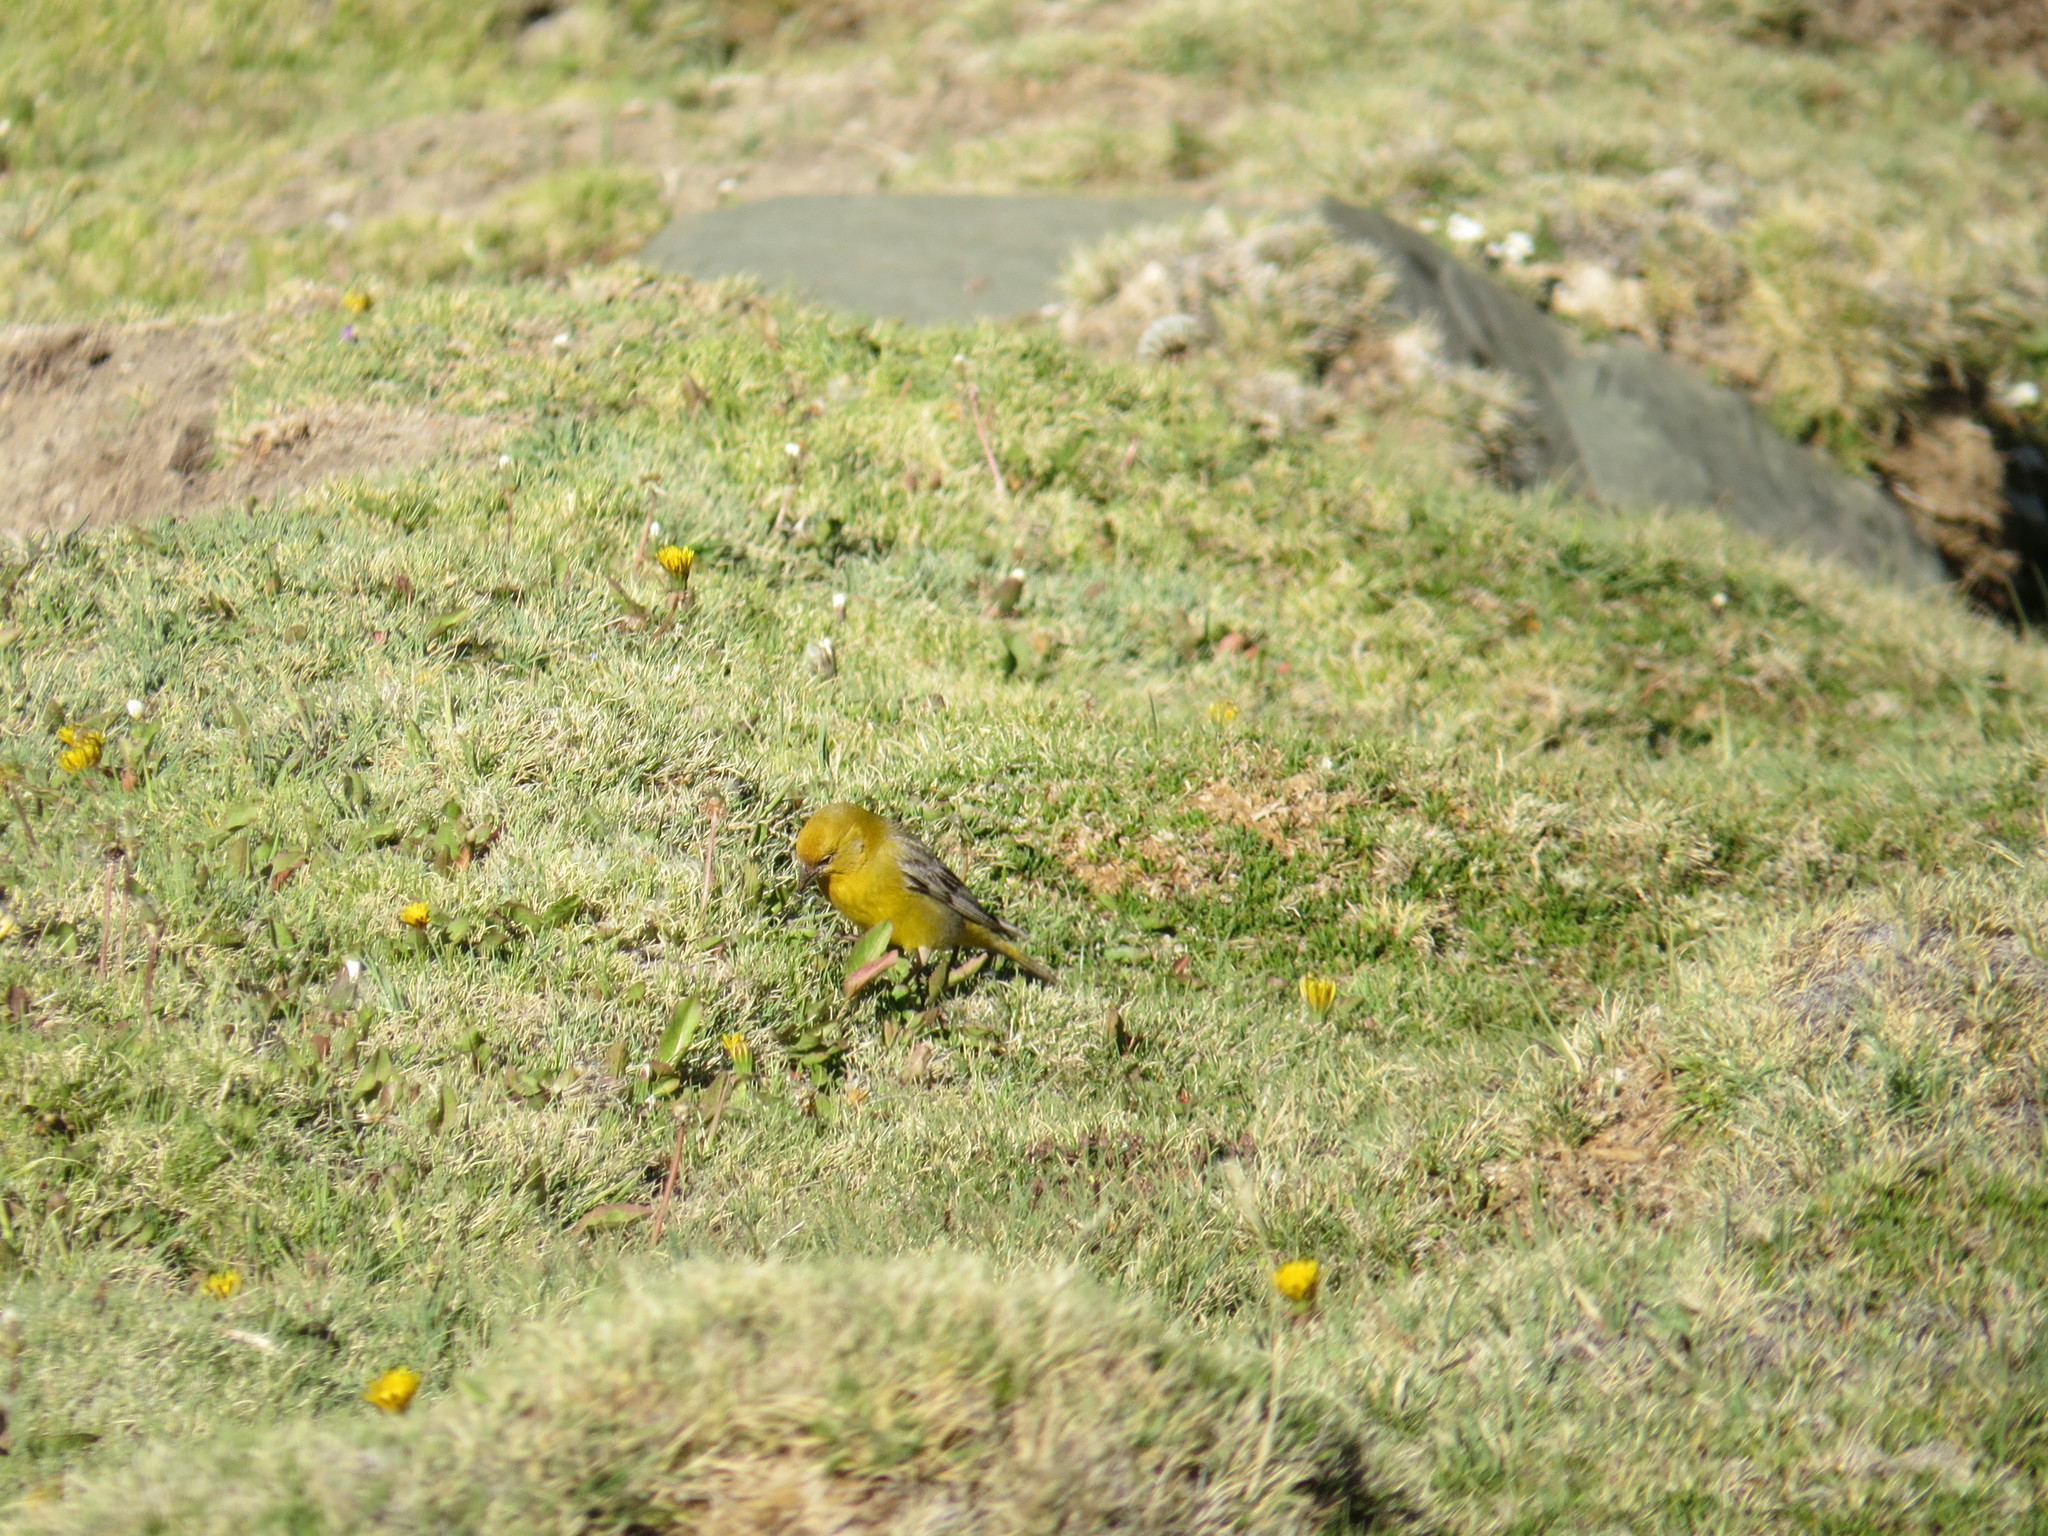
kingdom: Animalia
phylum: Chordata
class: Aves
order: Passeriformes
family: Thraupidae
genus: Sicalis
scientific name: Sicalis auriventris
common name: Greater yellow finch
